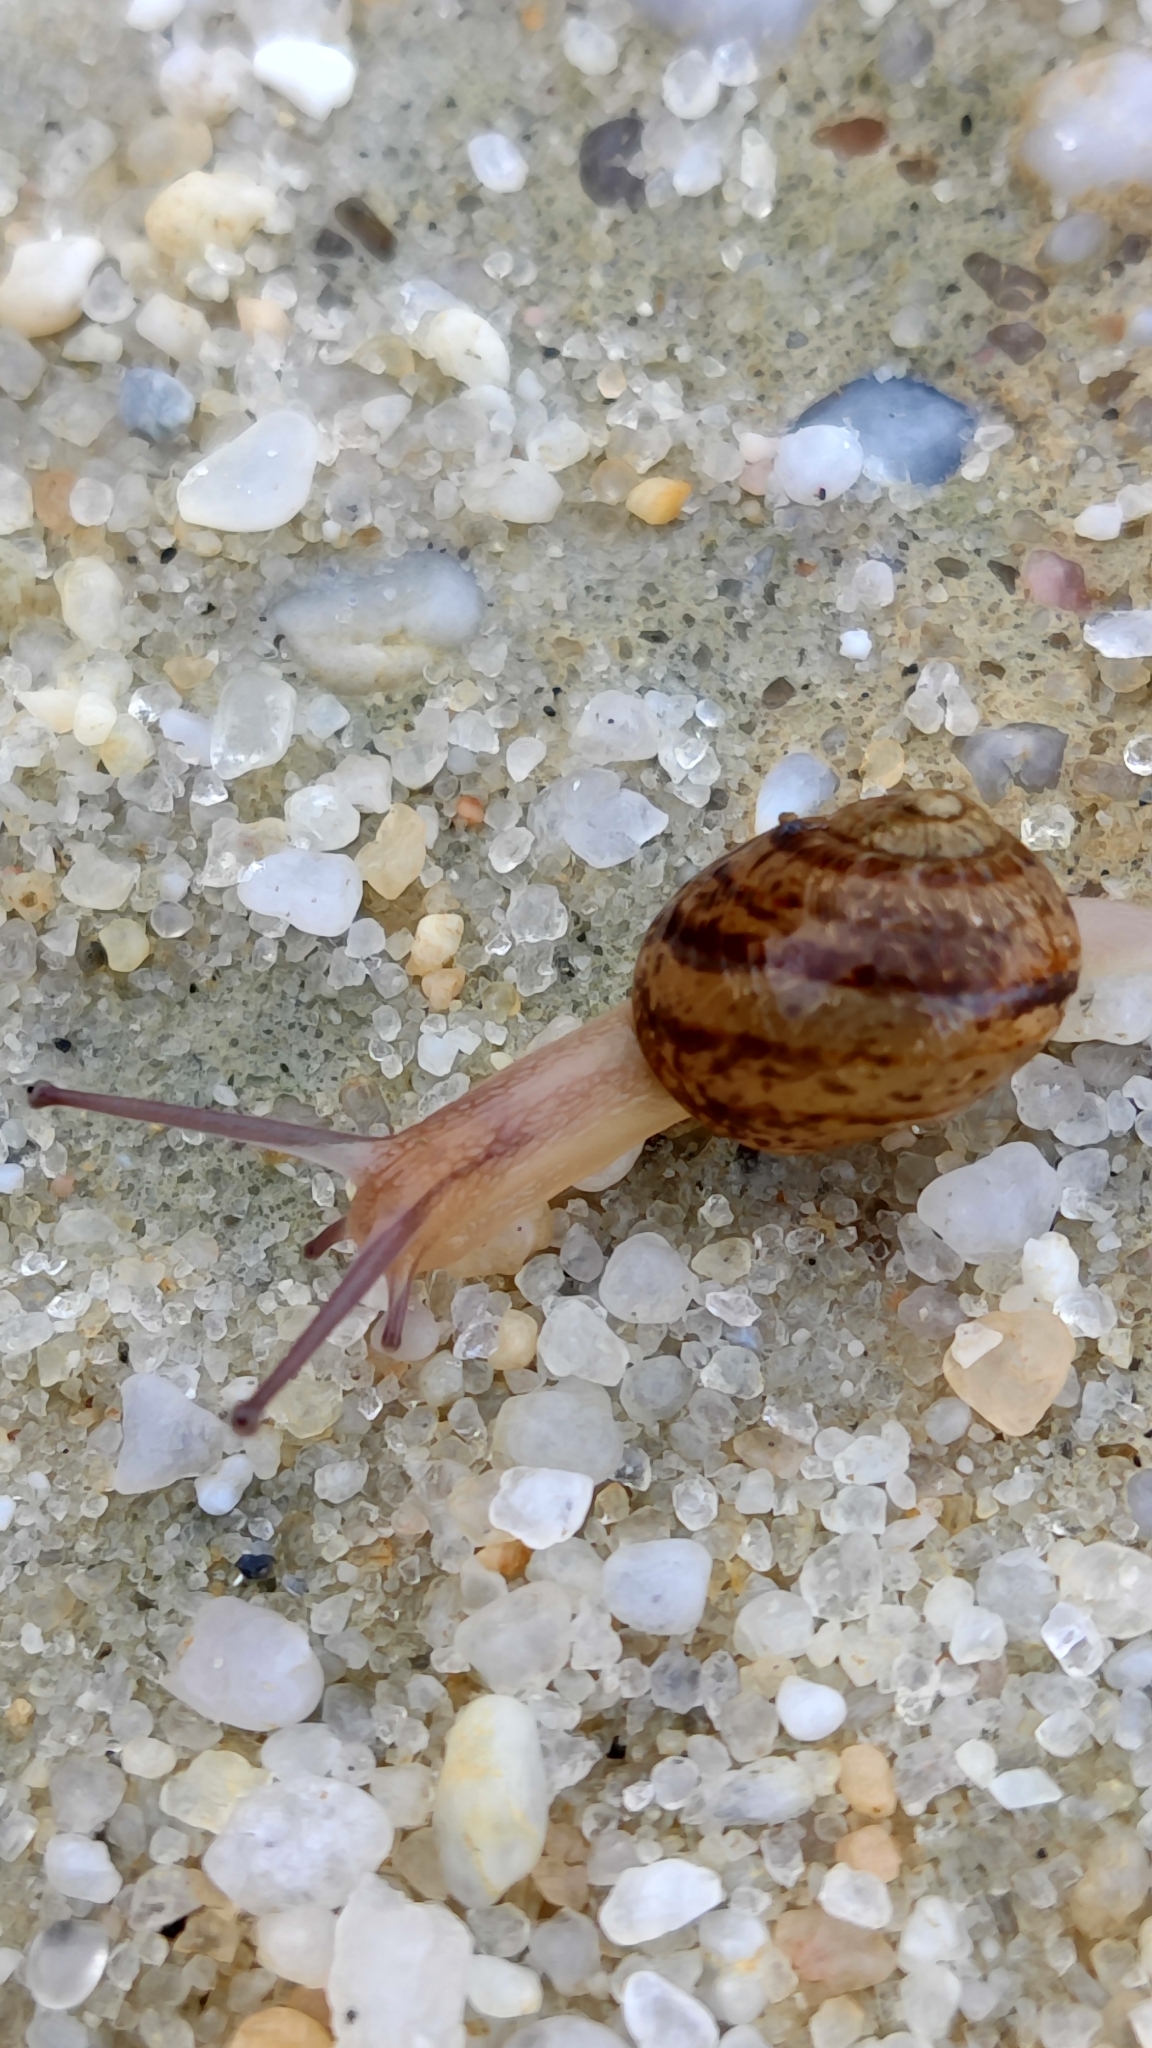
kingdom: Animalia
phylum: Mollusca
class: Gastropoda
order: Stylommatophora
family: Helicidae
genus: Cornu
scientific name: Cornu aspersum
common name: Brown garden snail
